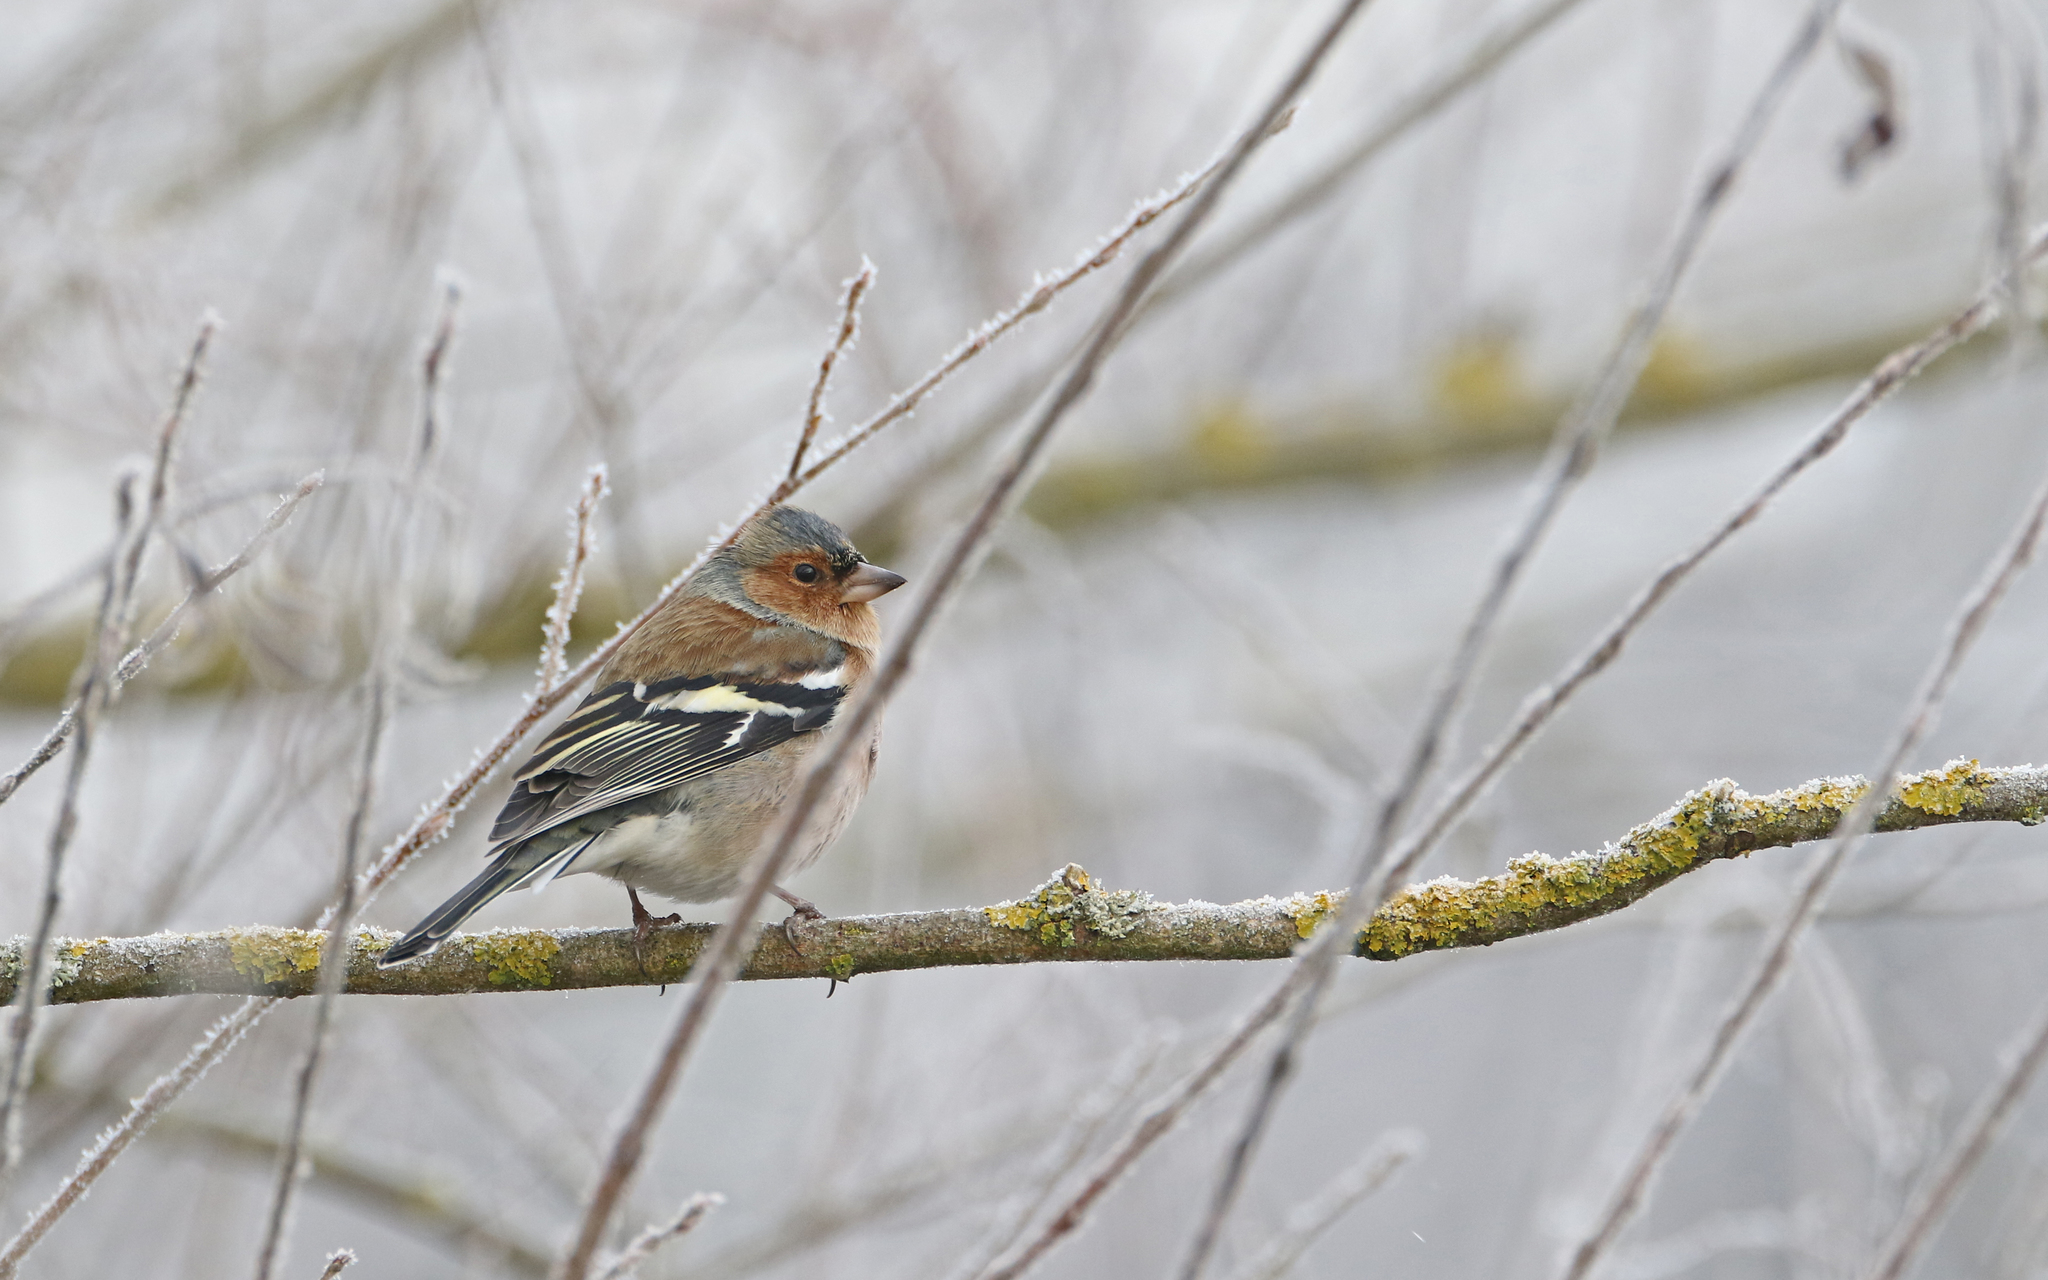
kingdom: Animalia
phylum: Chordata
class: Aves
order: Passeriformes
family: Fringillidae
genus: Fringilla
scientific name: Fringilla coelebs
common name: Common chaffinch
